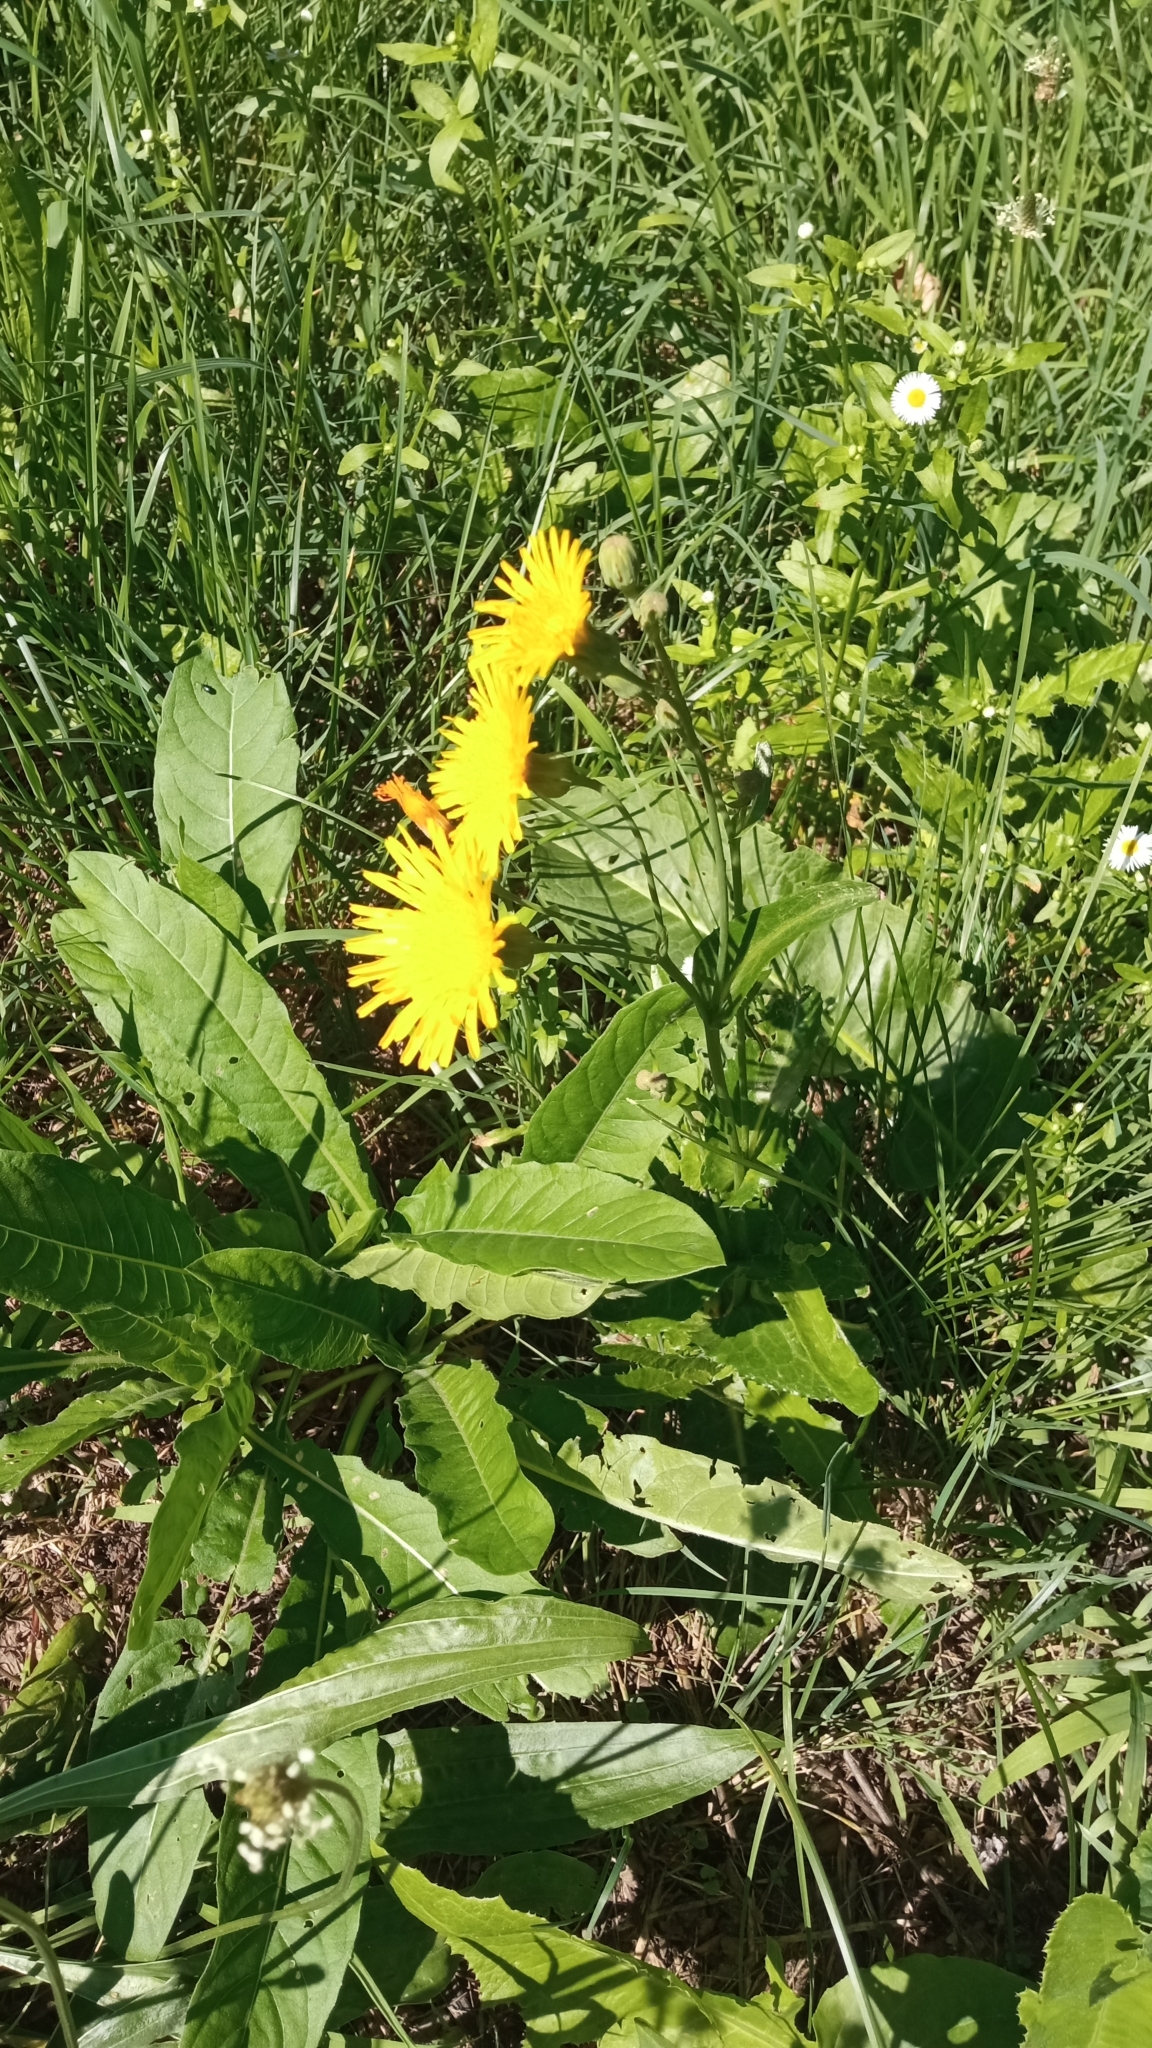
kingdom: Plantae
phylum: Tracheophyta
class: Magnoliopsida
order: Asterales
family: Asteraceae
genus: Sonchus
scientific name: Sonchus arvensis
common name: Perennial sow-thistle
